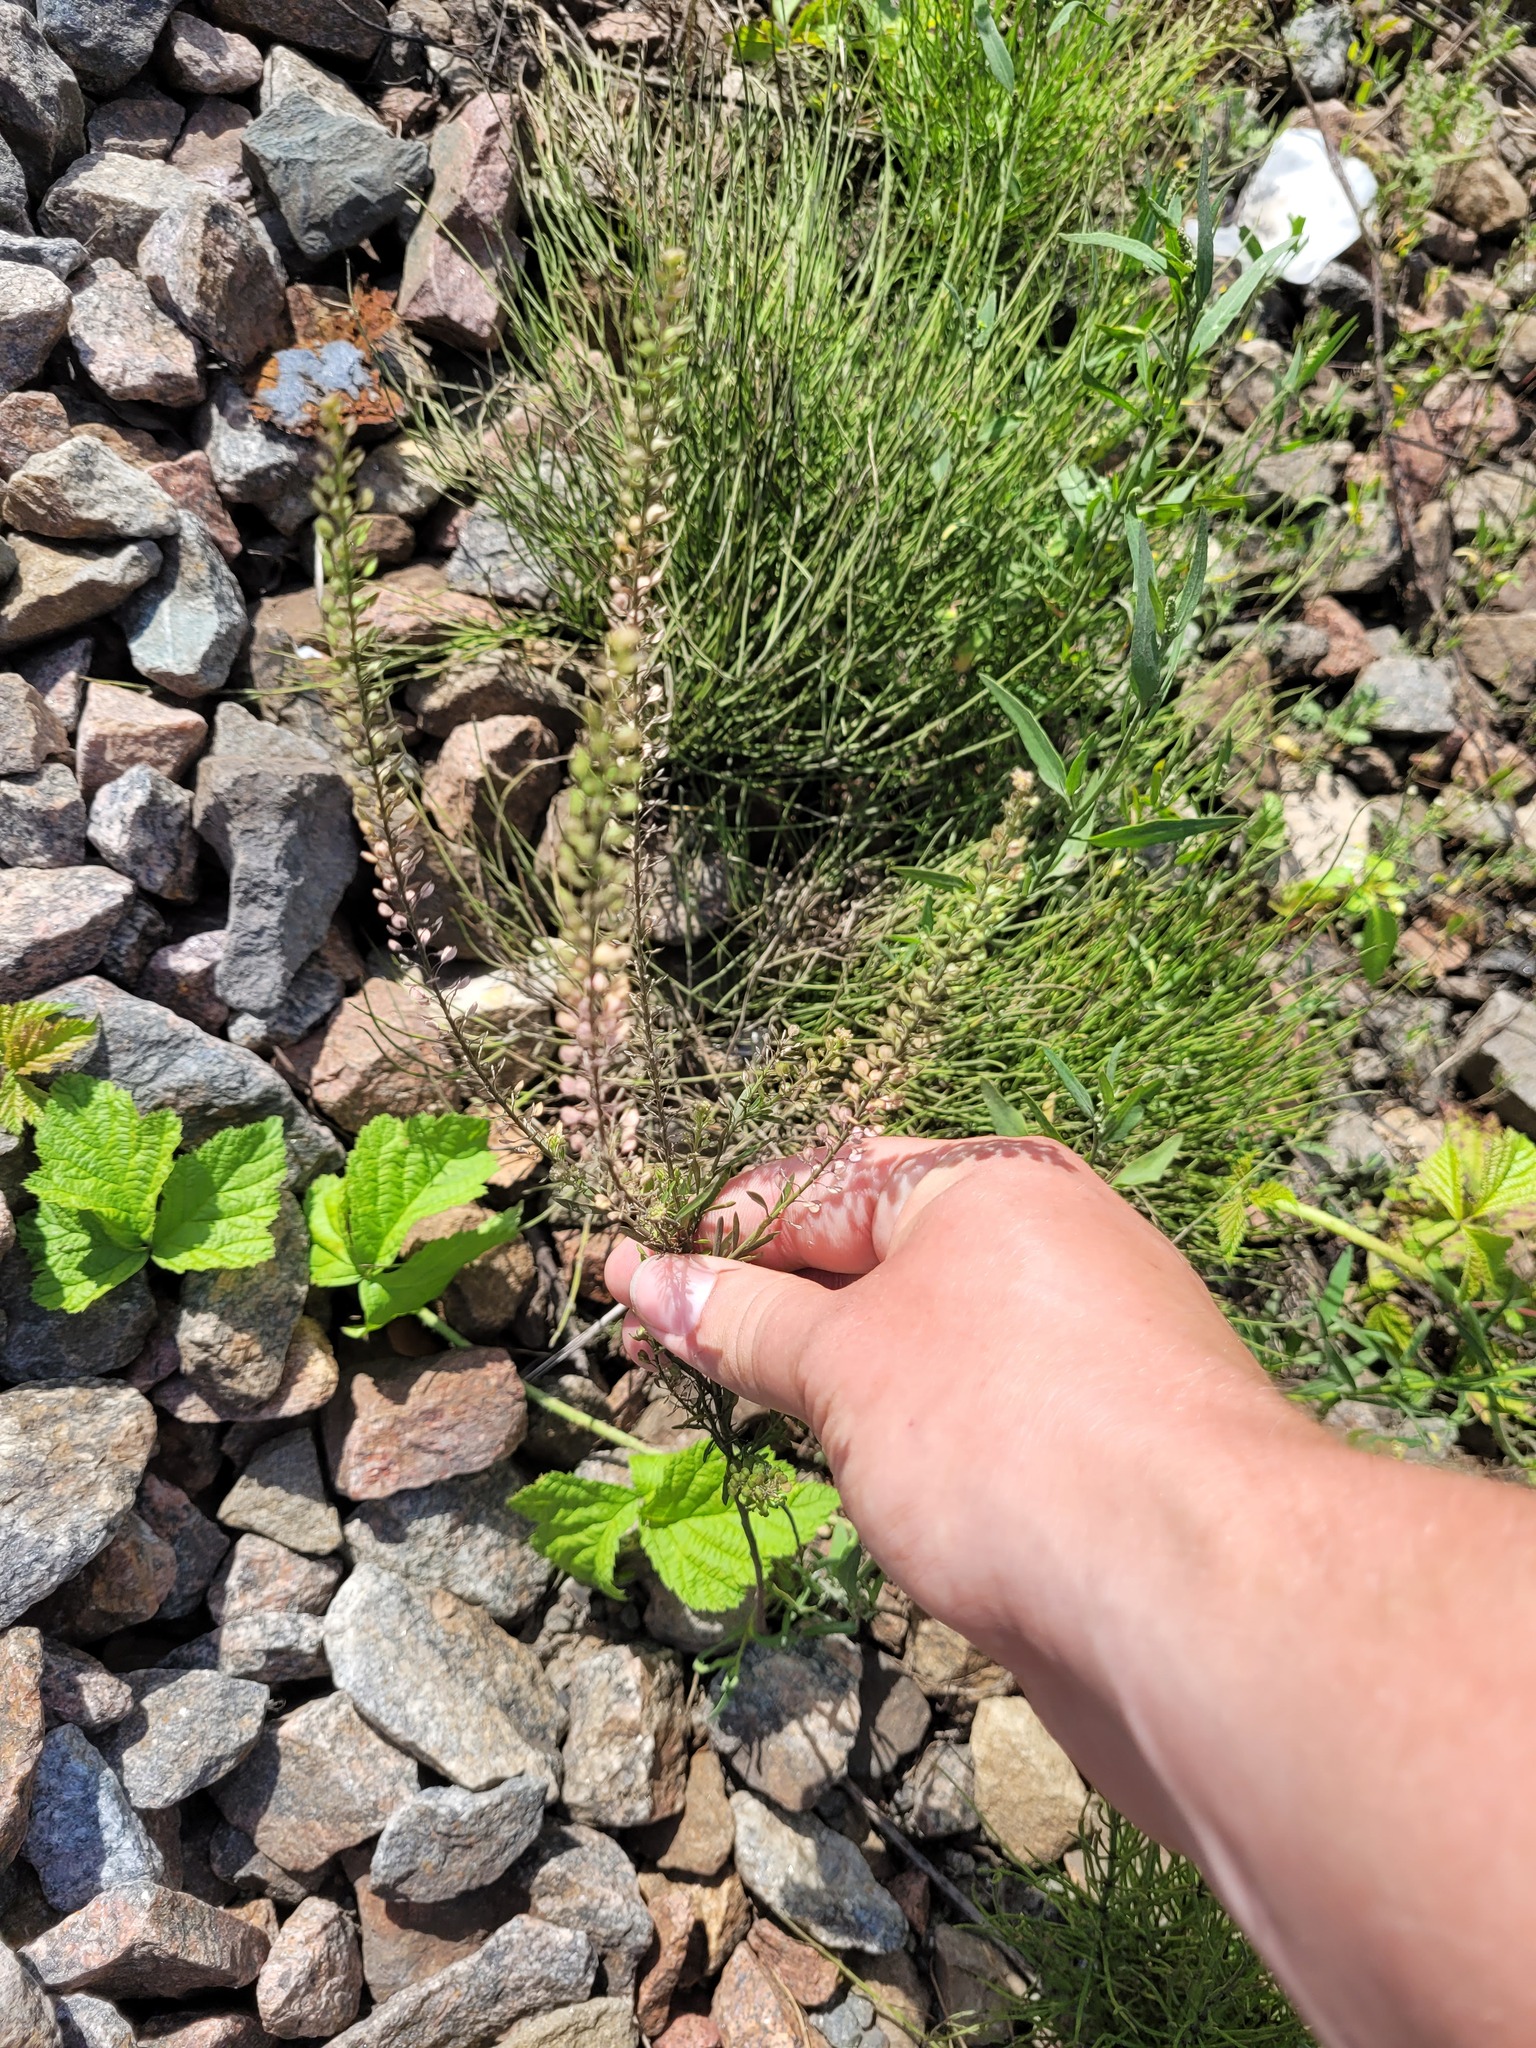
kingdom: Plantae
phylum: Tracheophyta
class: Magnoliopsida
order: Brassicales
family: Brassicaceae
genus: Lepidium
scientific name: Lepidium densiflorum
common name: Miner's pepperwort
